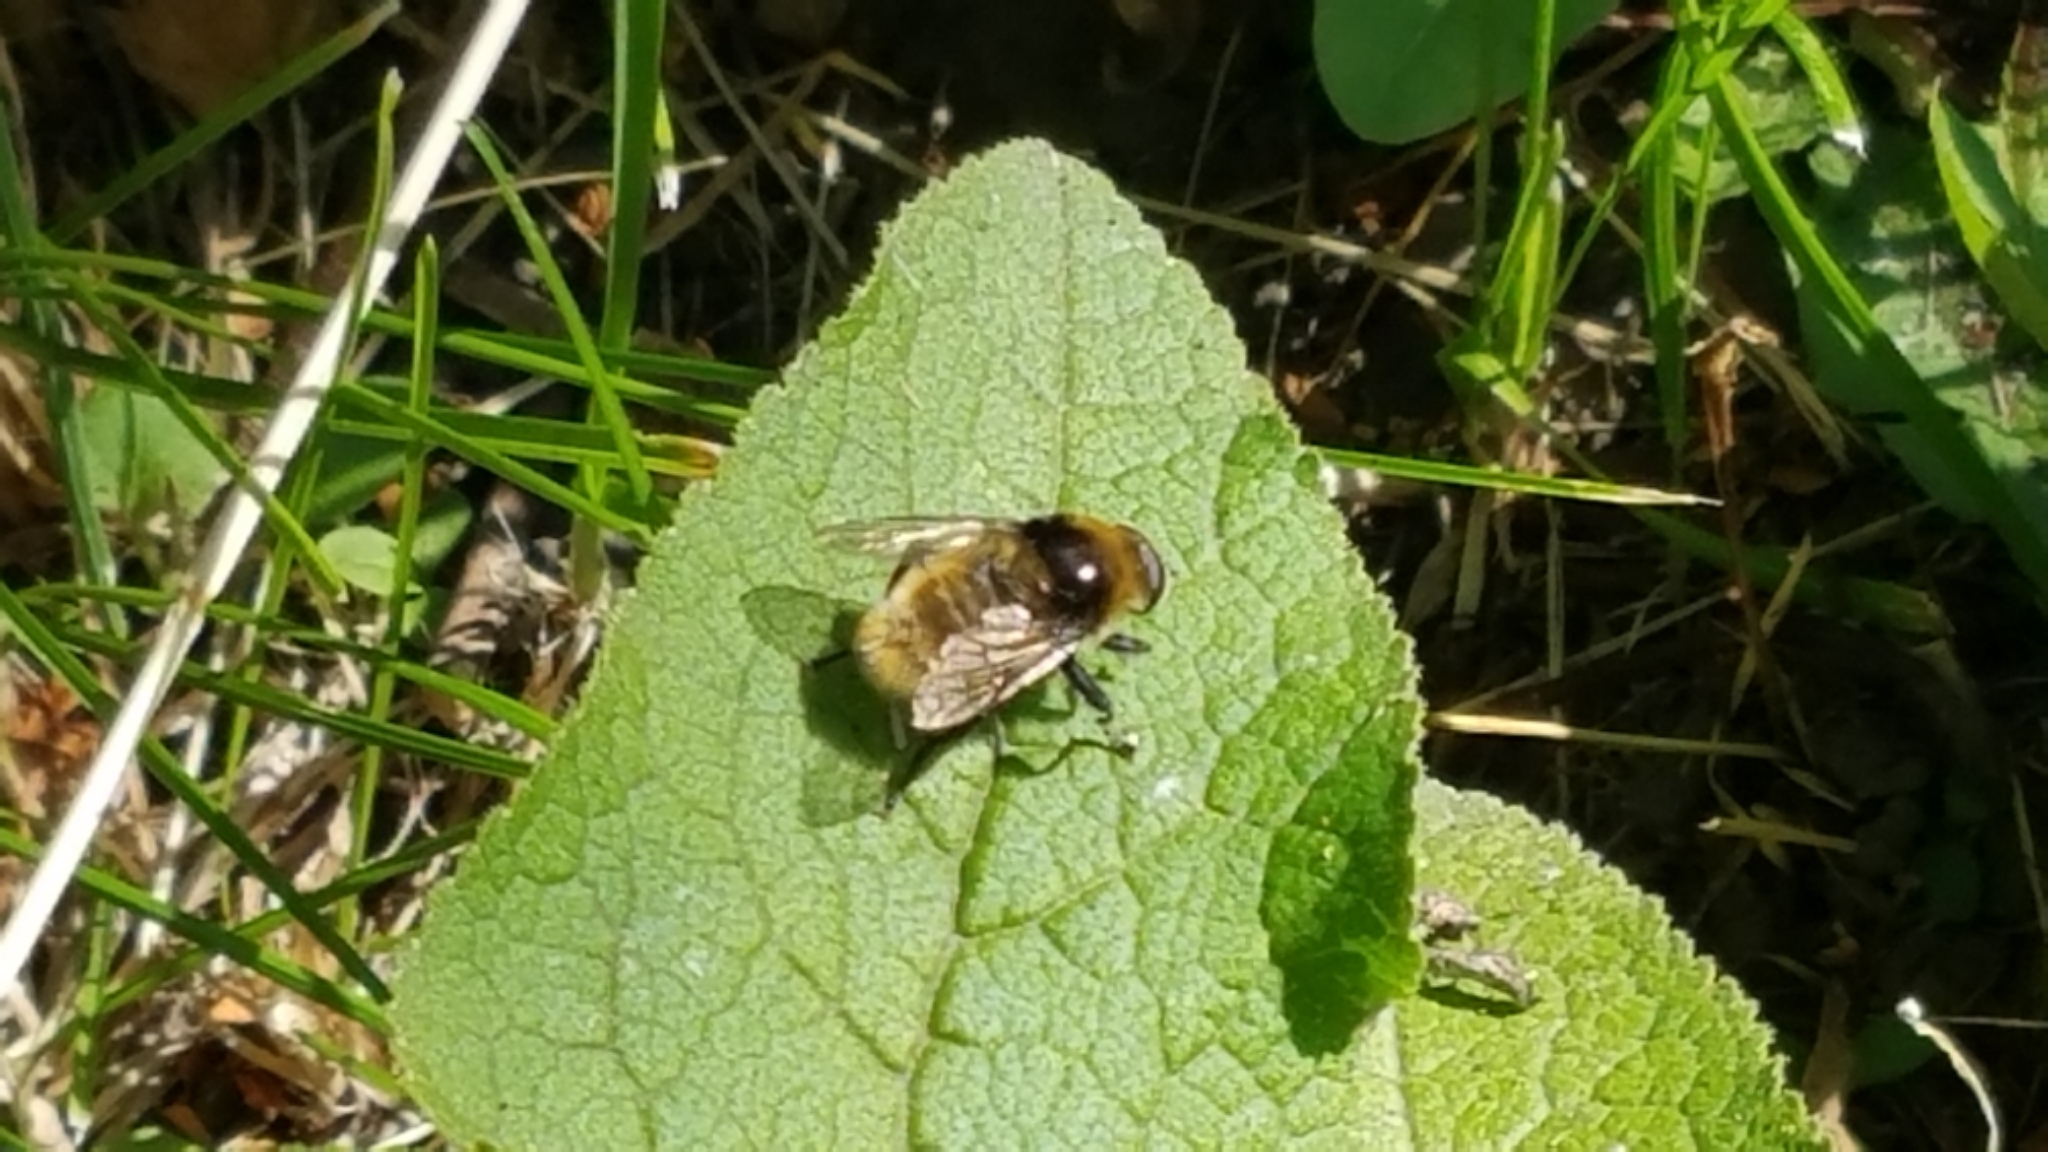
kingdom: Animalia
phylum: Arthropoda
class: Insecta
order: Diptera
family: Syrphidae
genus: Merodon
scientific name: Merodon equestris
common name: Greater bulb-fly
